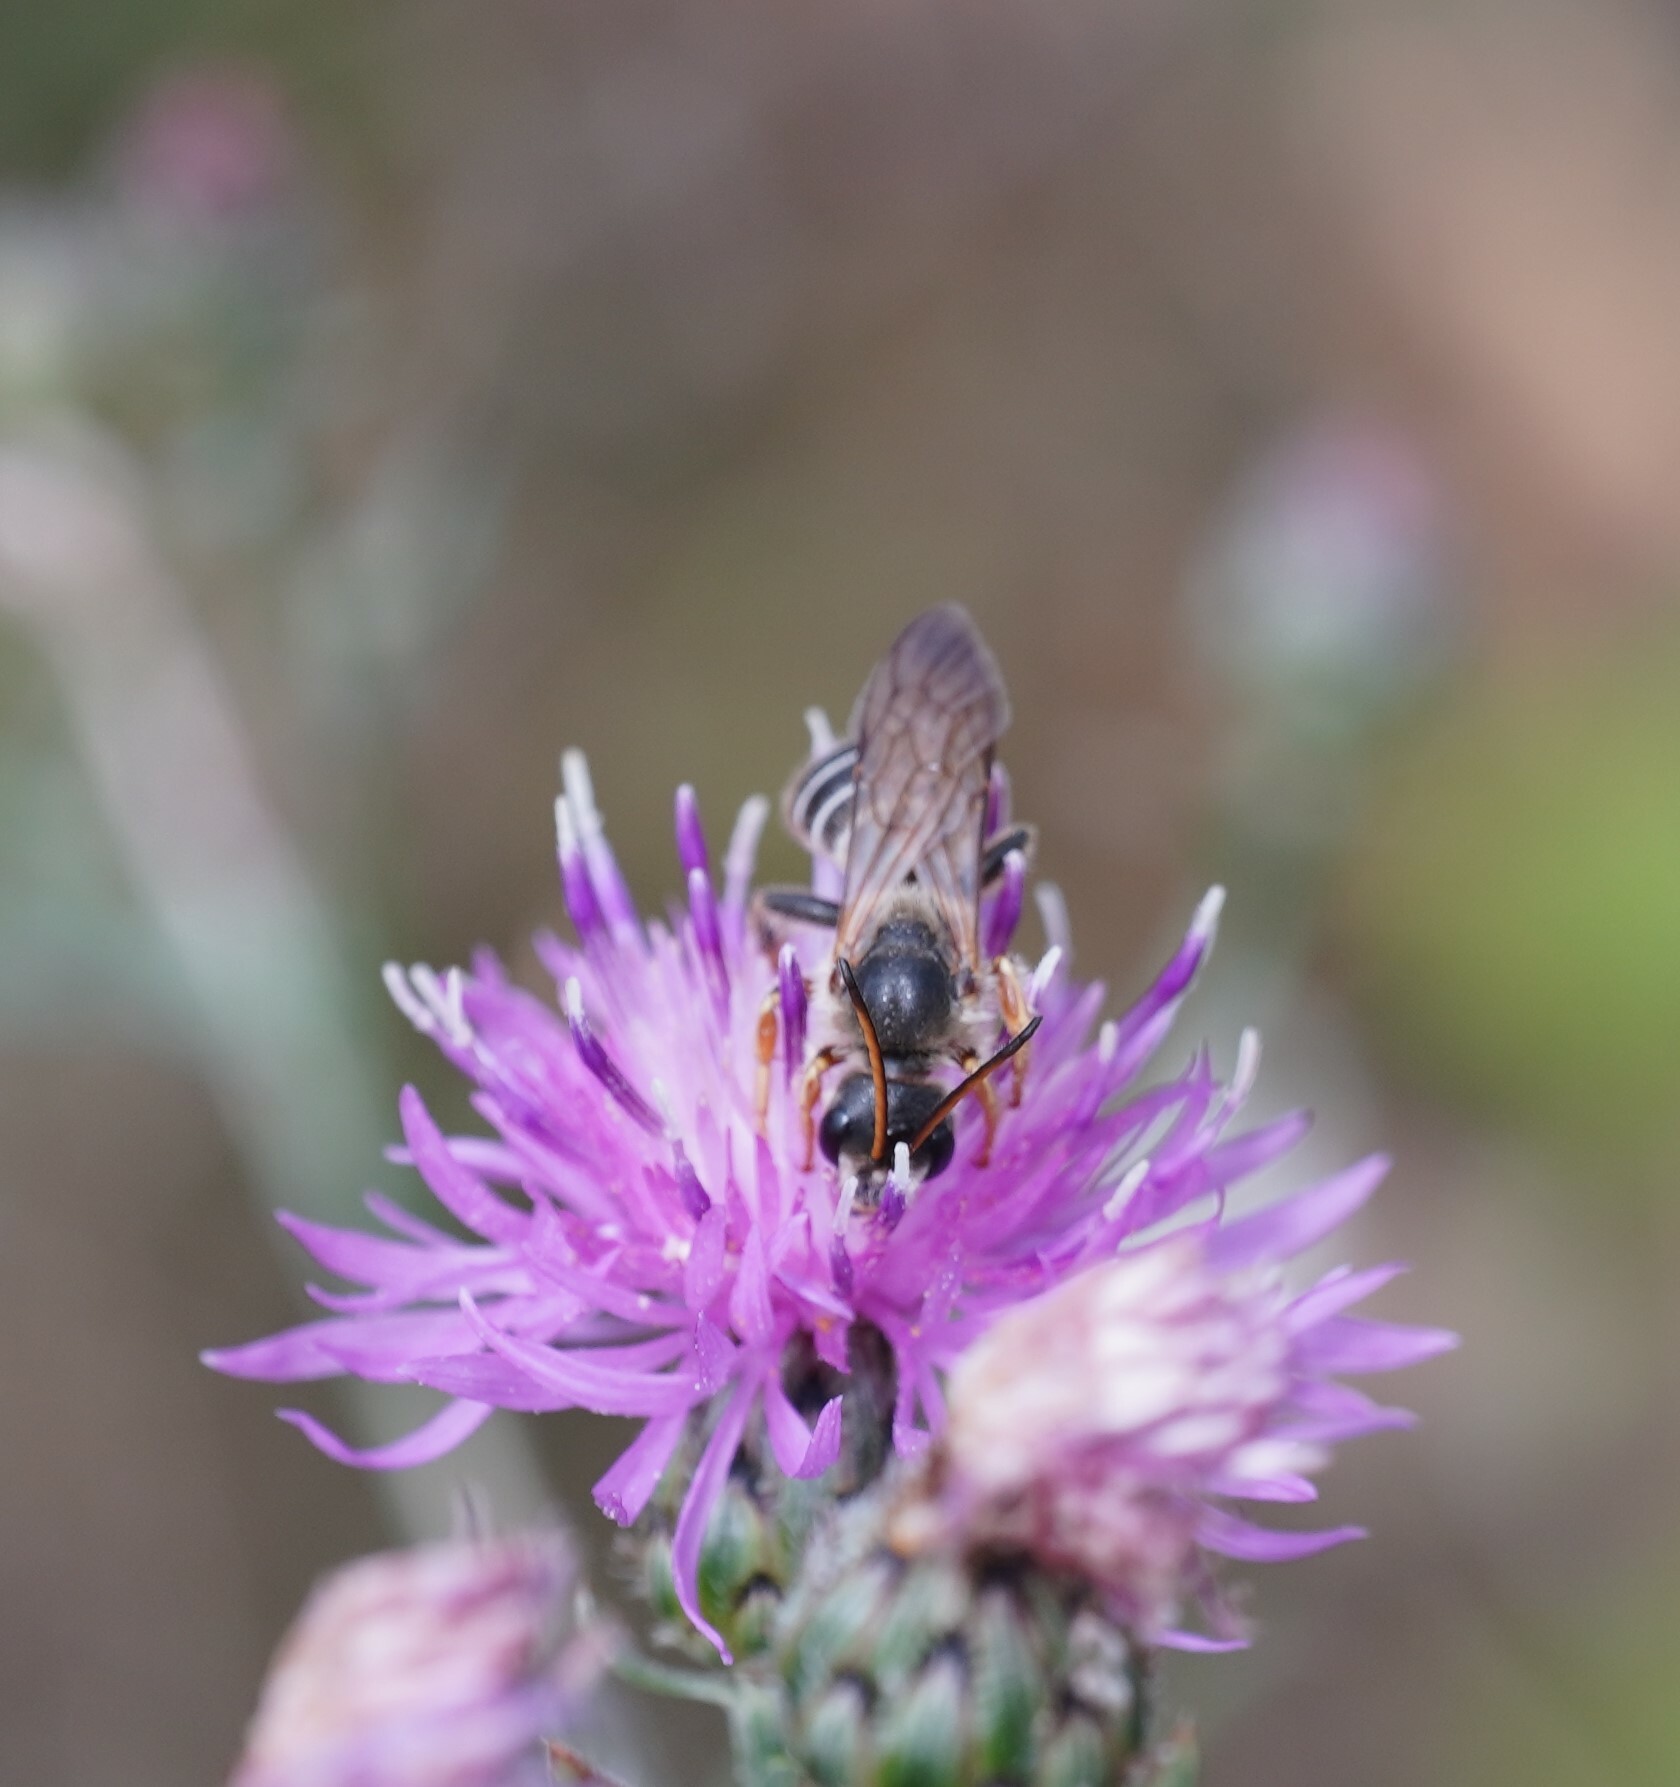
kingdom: Animalia
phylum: Arthropoda
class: Insecta
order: Hymenoptera
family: Halictidae
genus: Halictus
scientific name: Halictus quadricinctus
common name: Giant furrow bee
